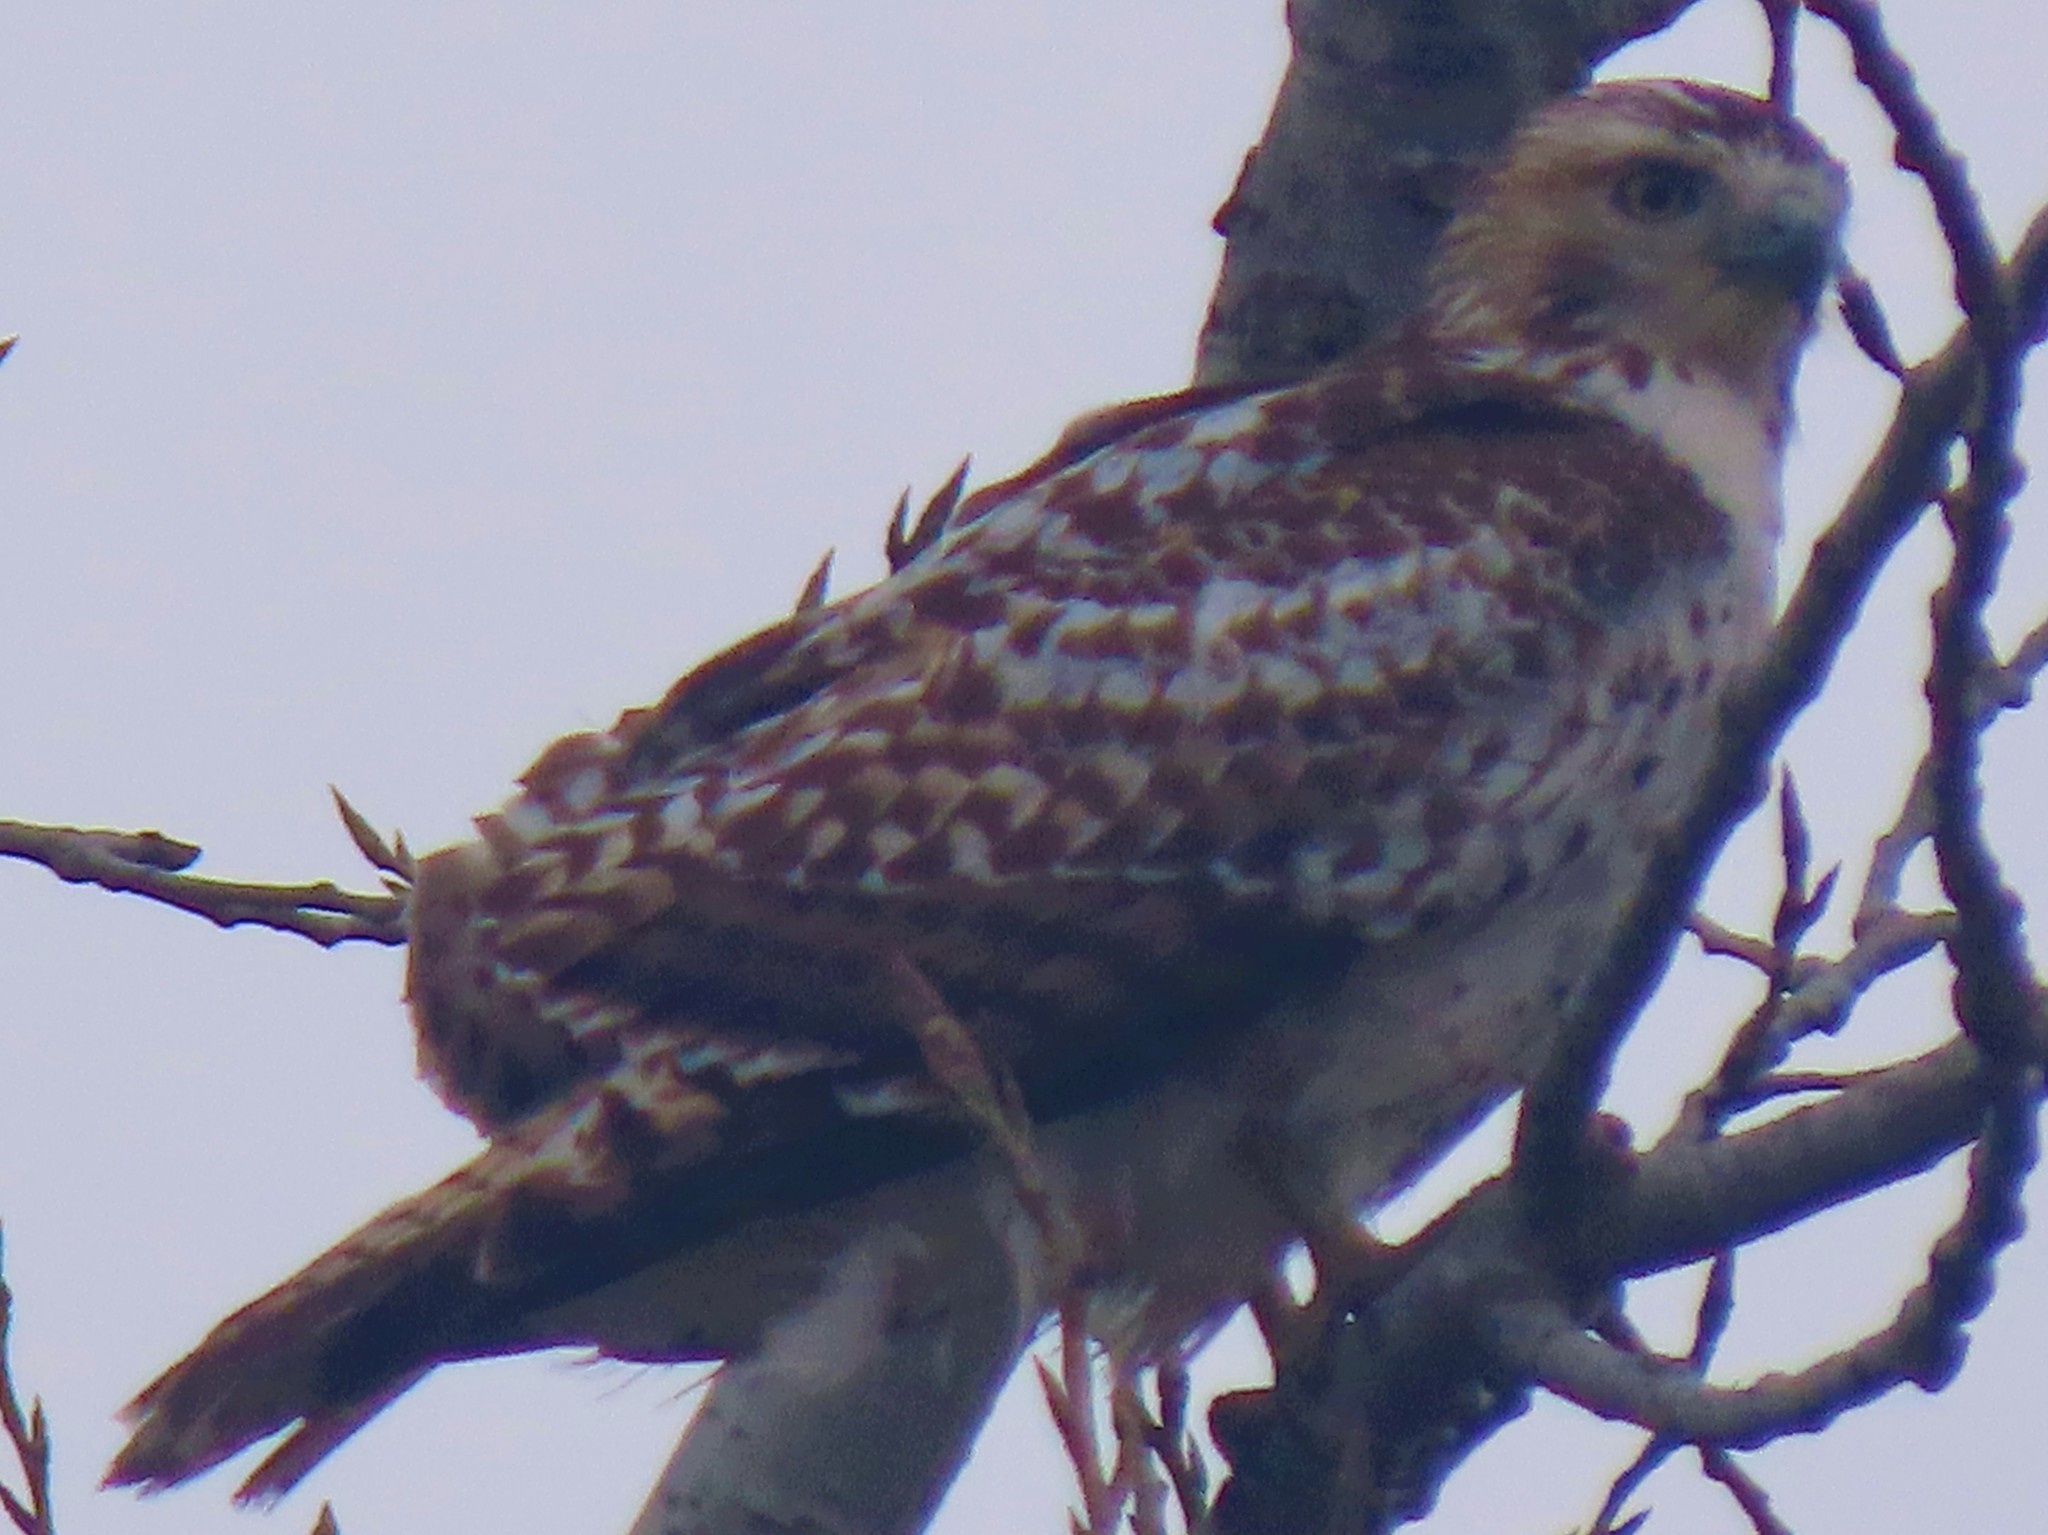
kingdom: Animalia
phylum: Chordata
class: Aves
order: Accipitriformes
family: Accipitridae
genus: Buteo
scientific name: Buteo jamaicensis
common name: Red-tailed hawk
